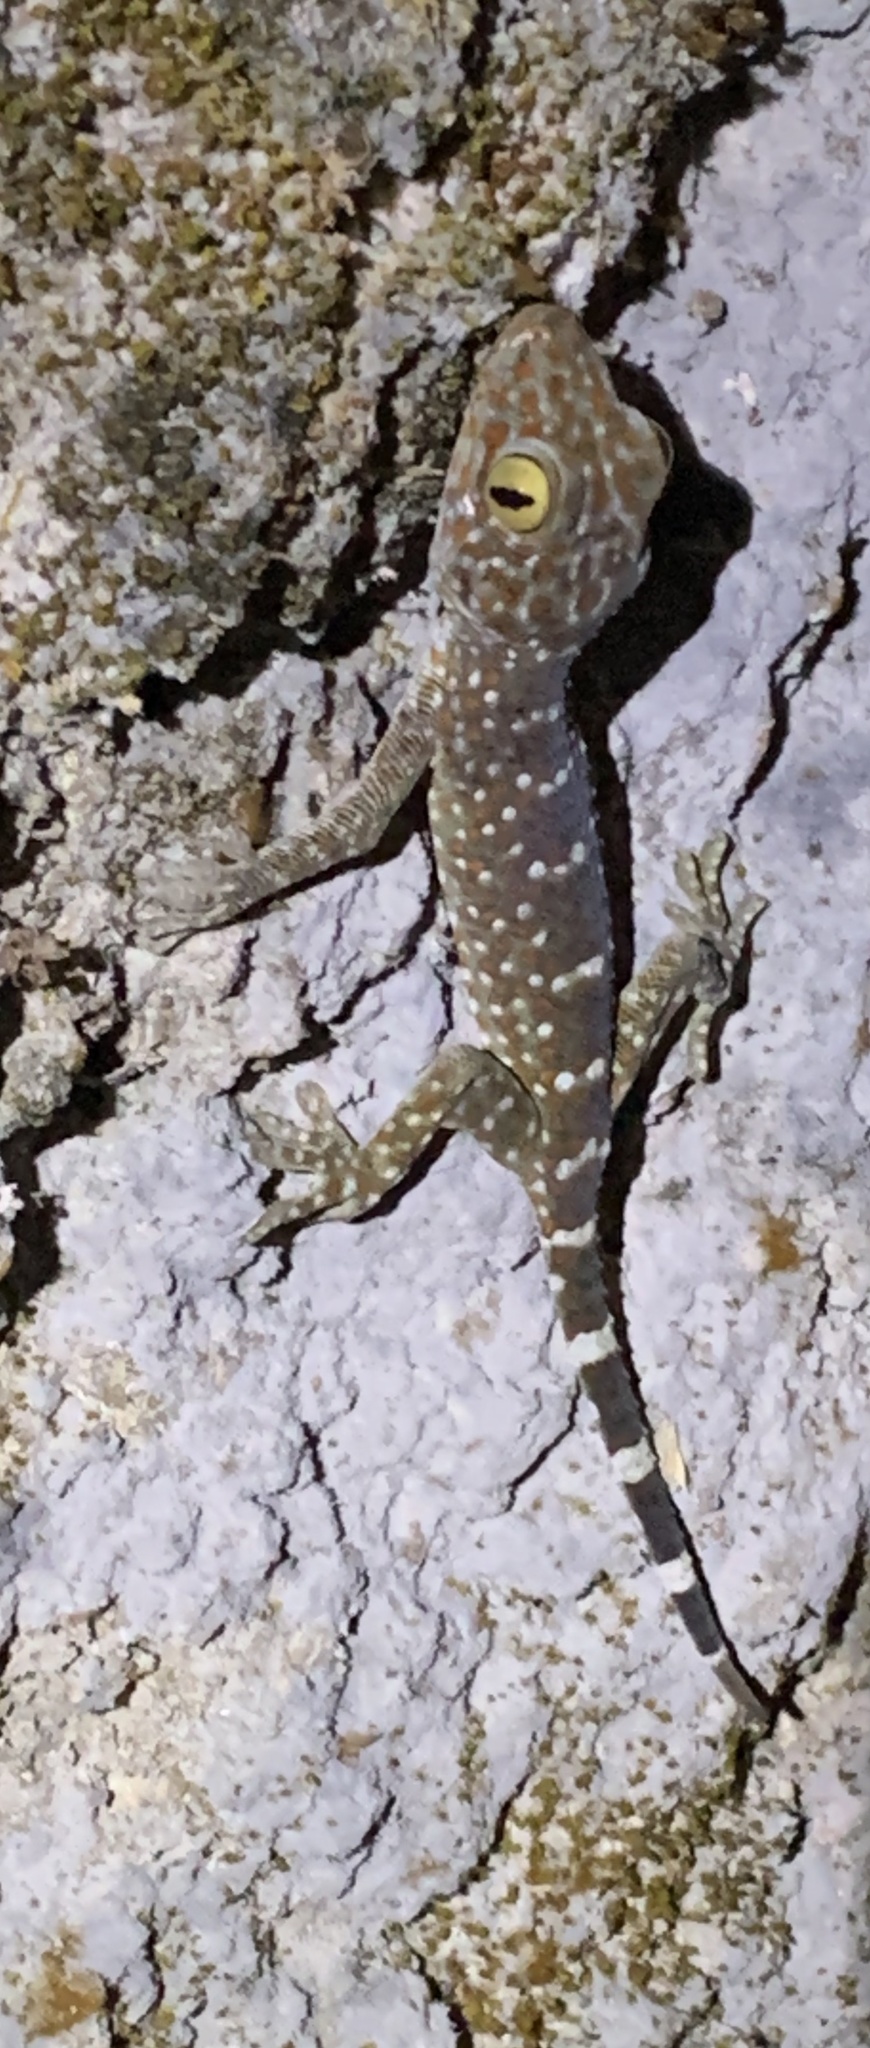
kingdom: Animalia
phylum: Chordata
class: Squamata
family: Gekkonidae
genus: Gekko
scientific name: Gekko gecko
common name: Tokay gecko
